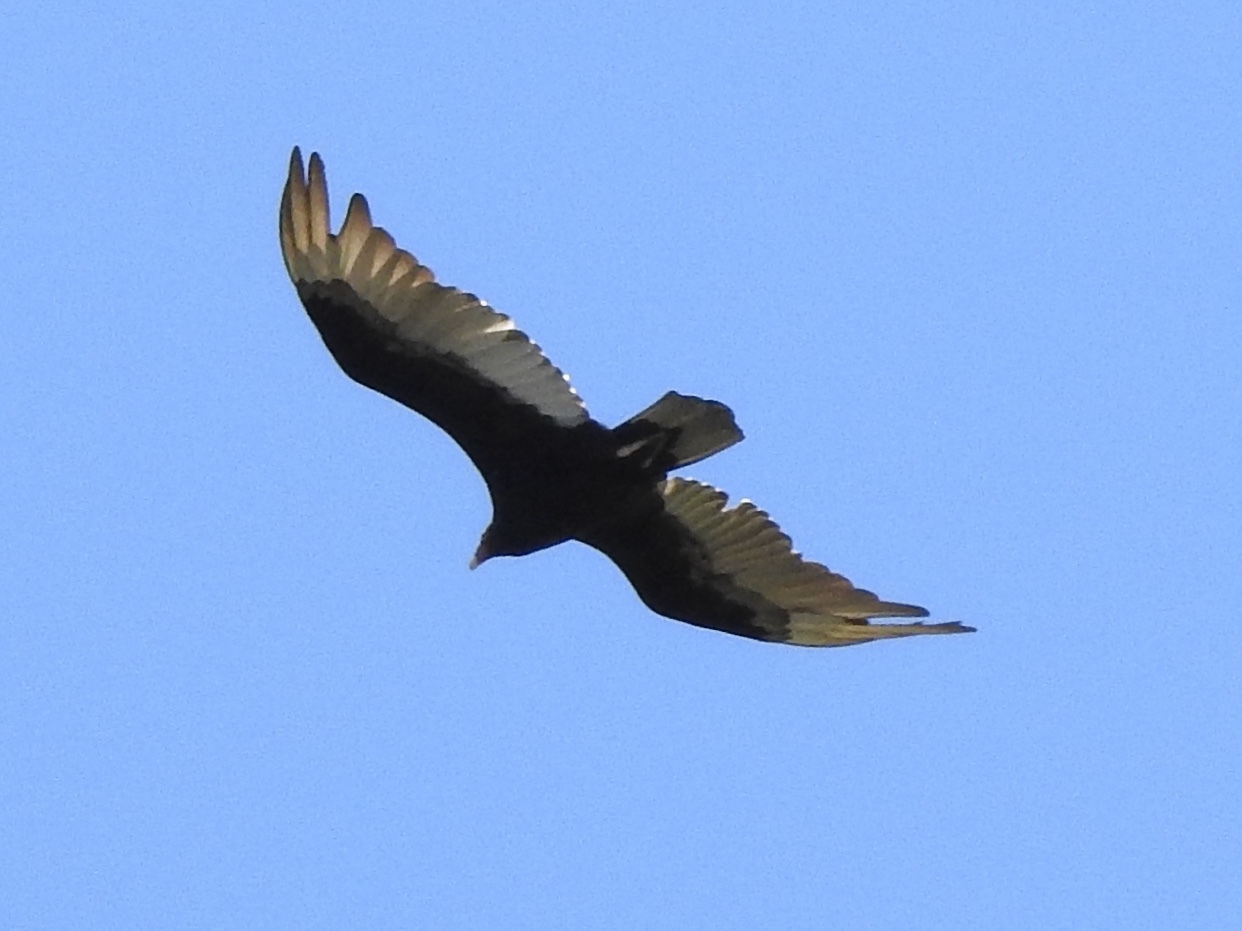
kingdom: Animalia
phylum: Chordata
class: Aves
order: Accipitriformes
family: Cathartidae
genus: Cathartes
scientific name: Cathartes aura
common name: Turkey vulture
